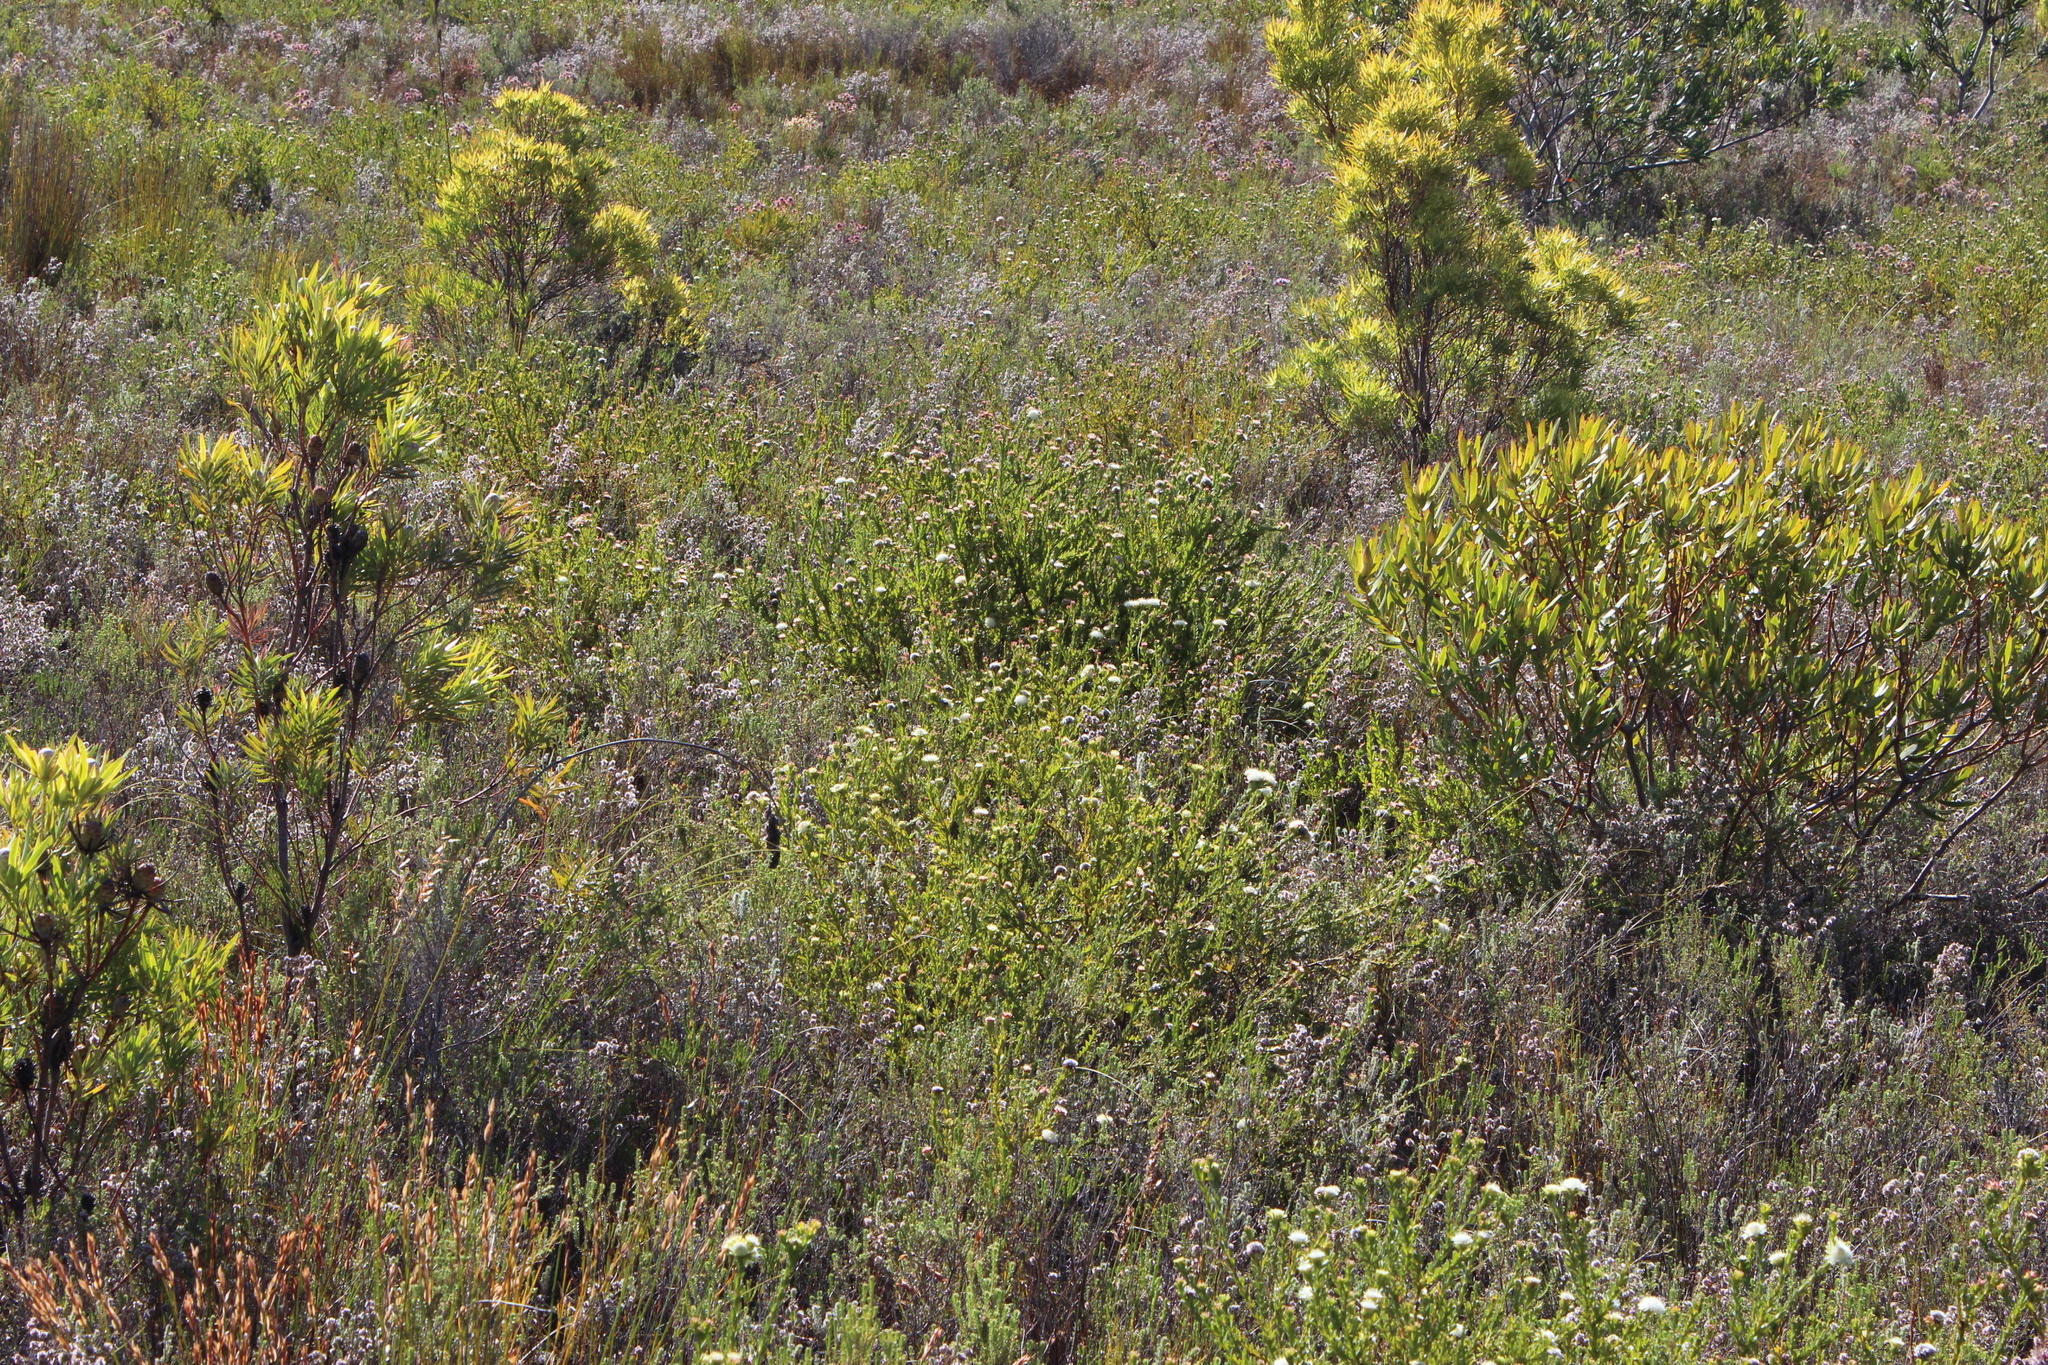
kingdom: Plantae
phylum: Tracheophyta
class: Magnoliopsida
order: Proteales
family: Proteaceae
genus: Diastella
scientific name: Diastella thymelaeoides
